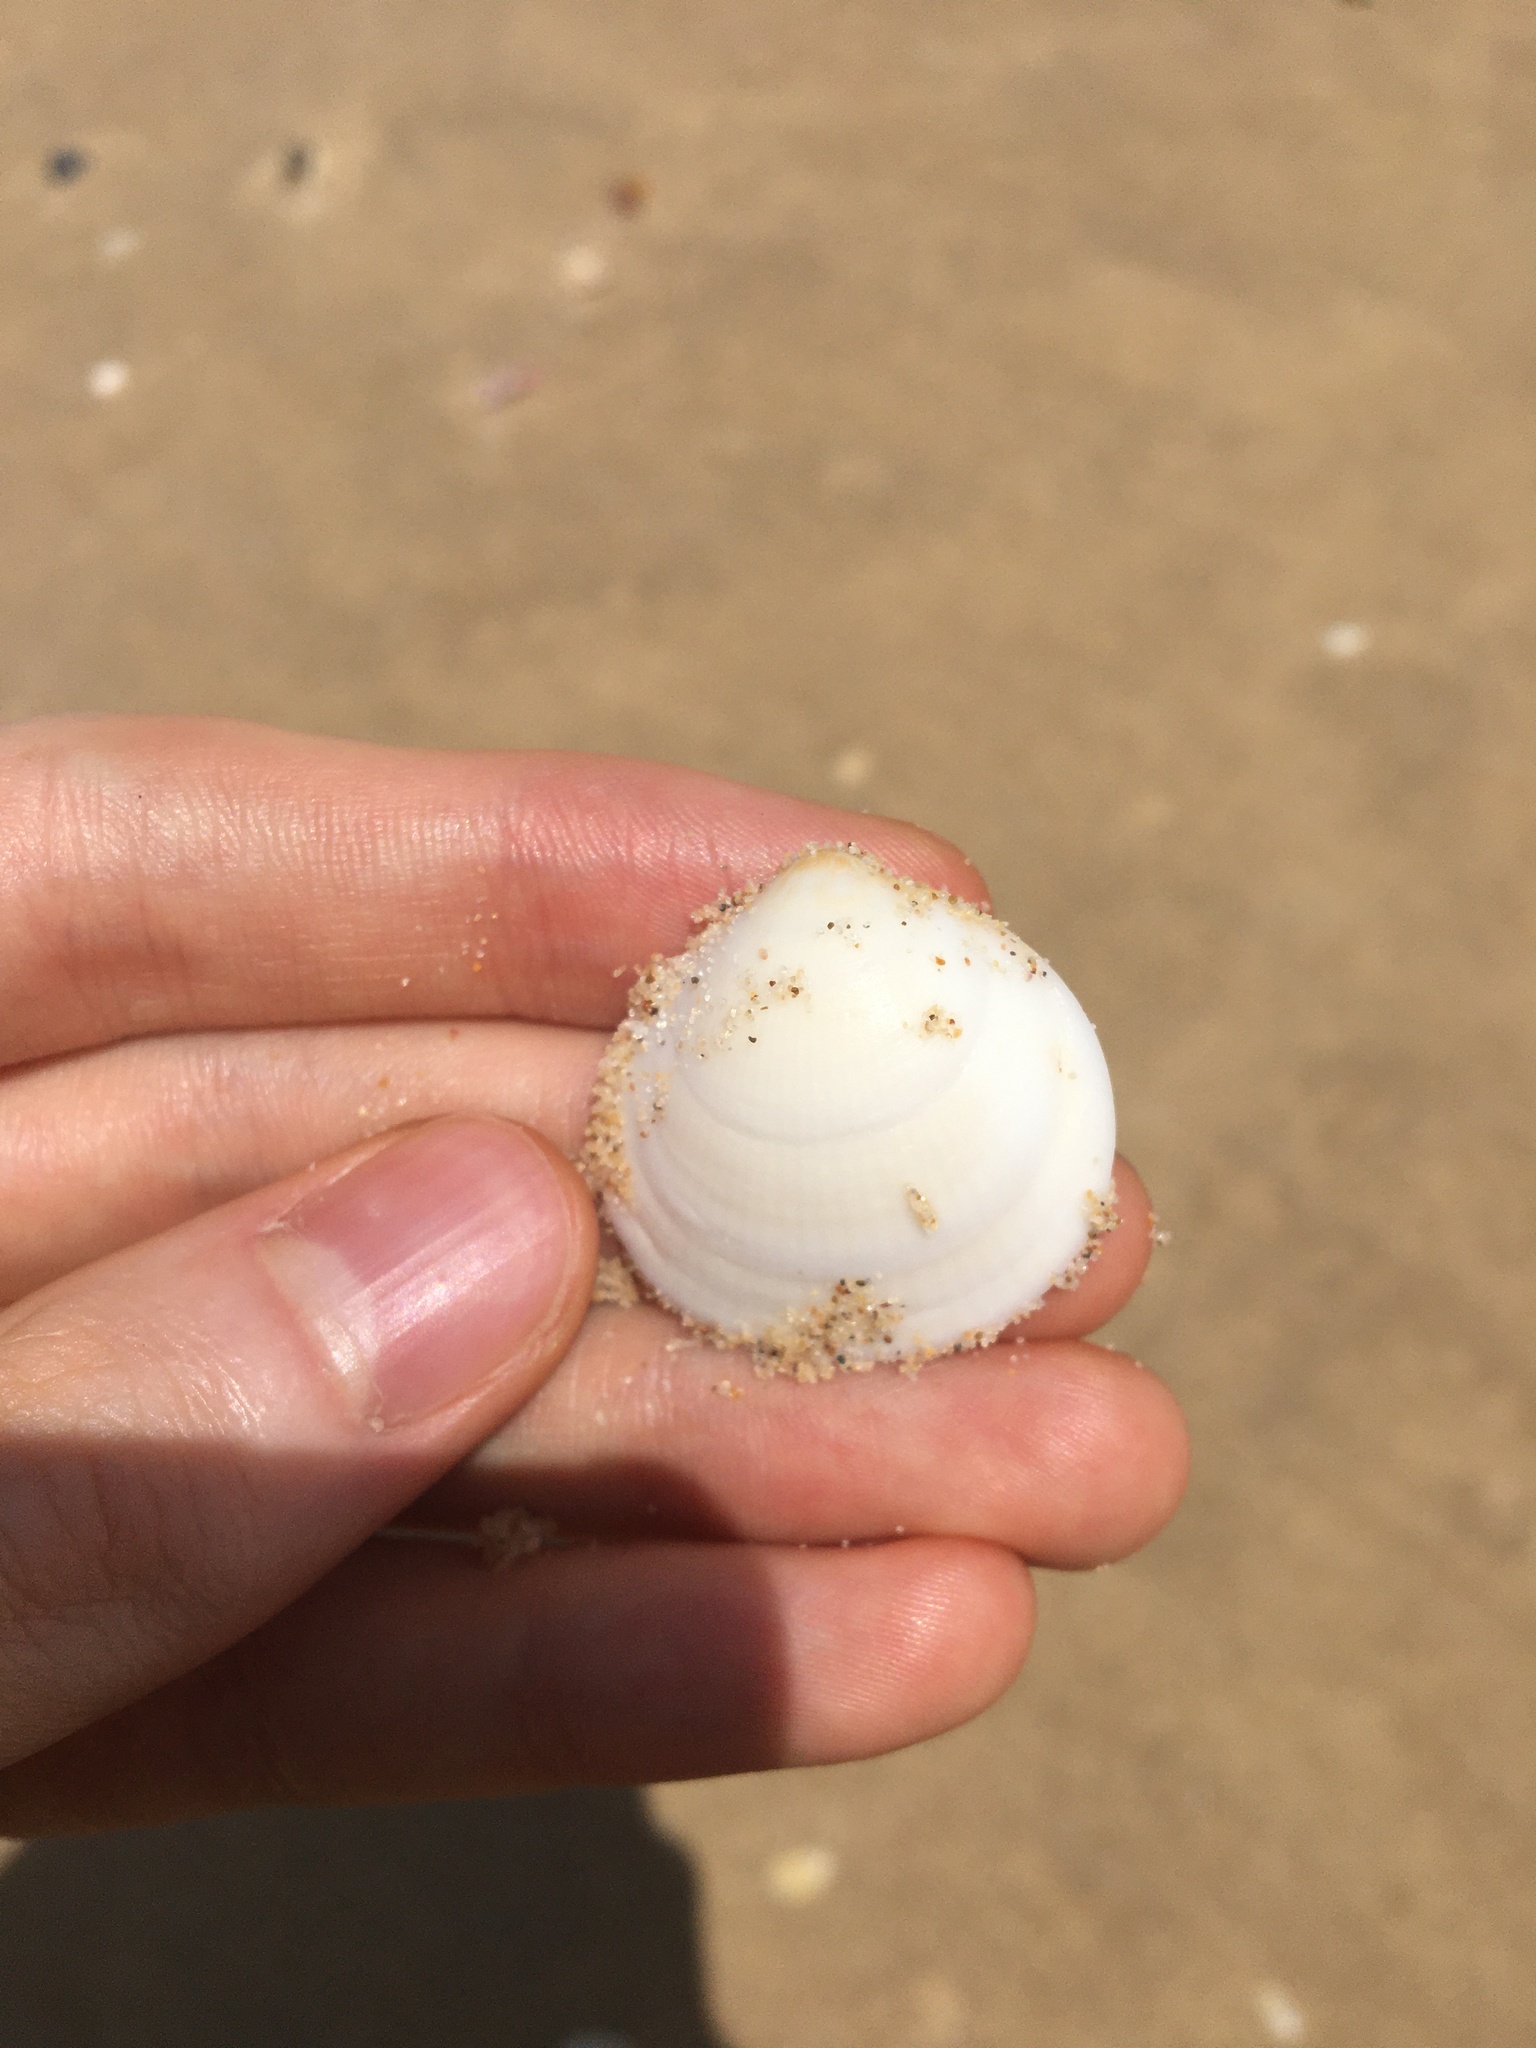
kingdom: Animalia
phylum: Mollusca
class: Bivalvia
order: Arcida
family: Glycymerididae
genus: Glycymeris
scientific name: Glycymeris holoserica
